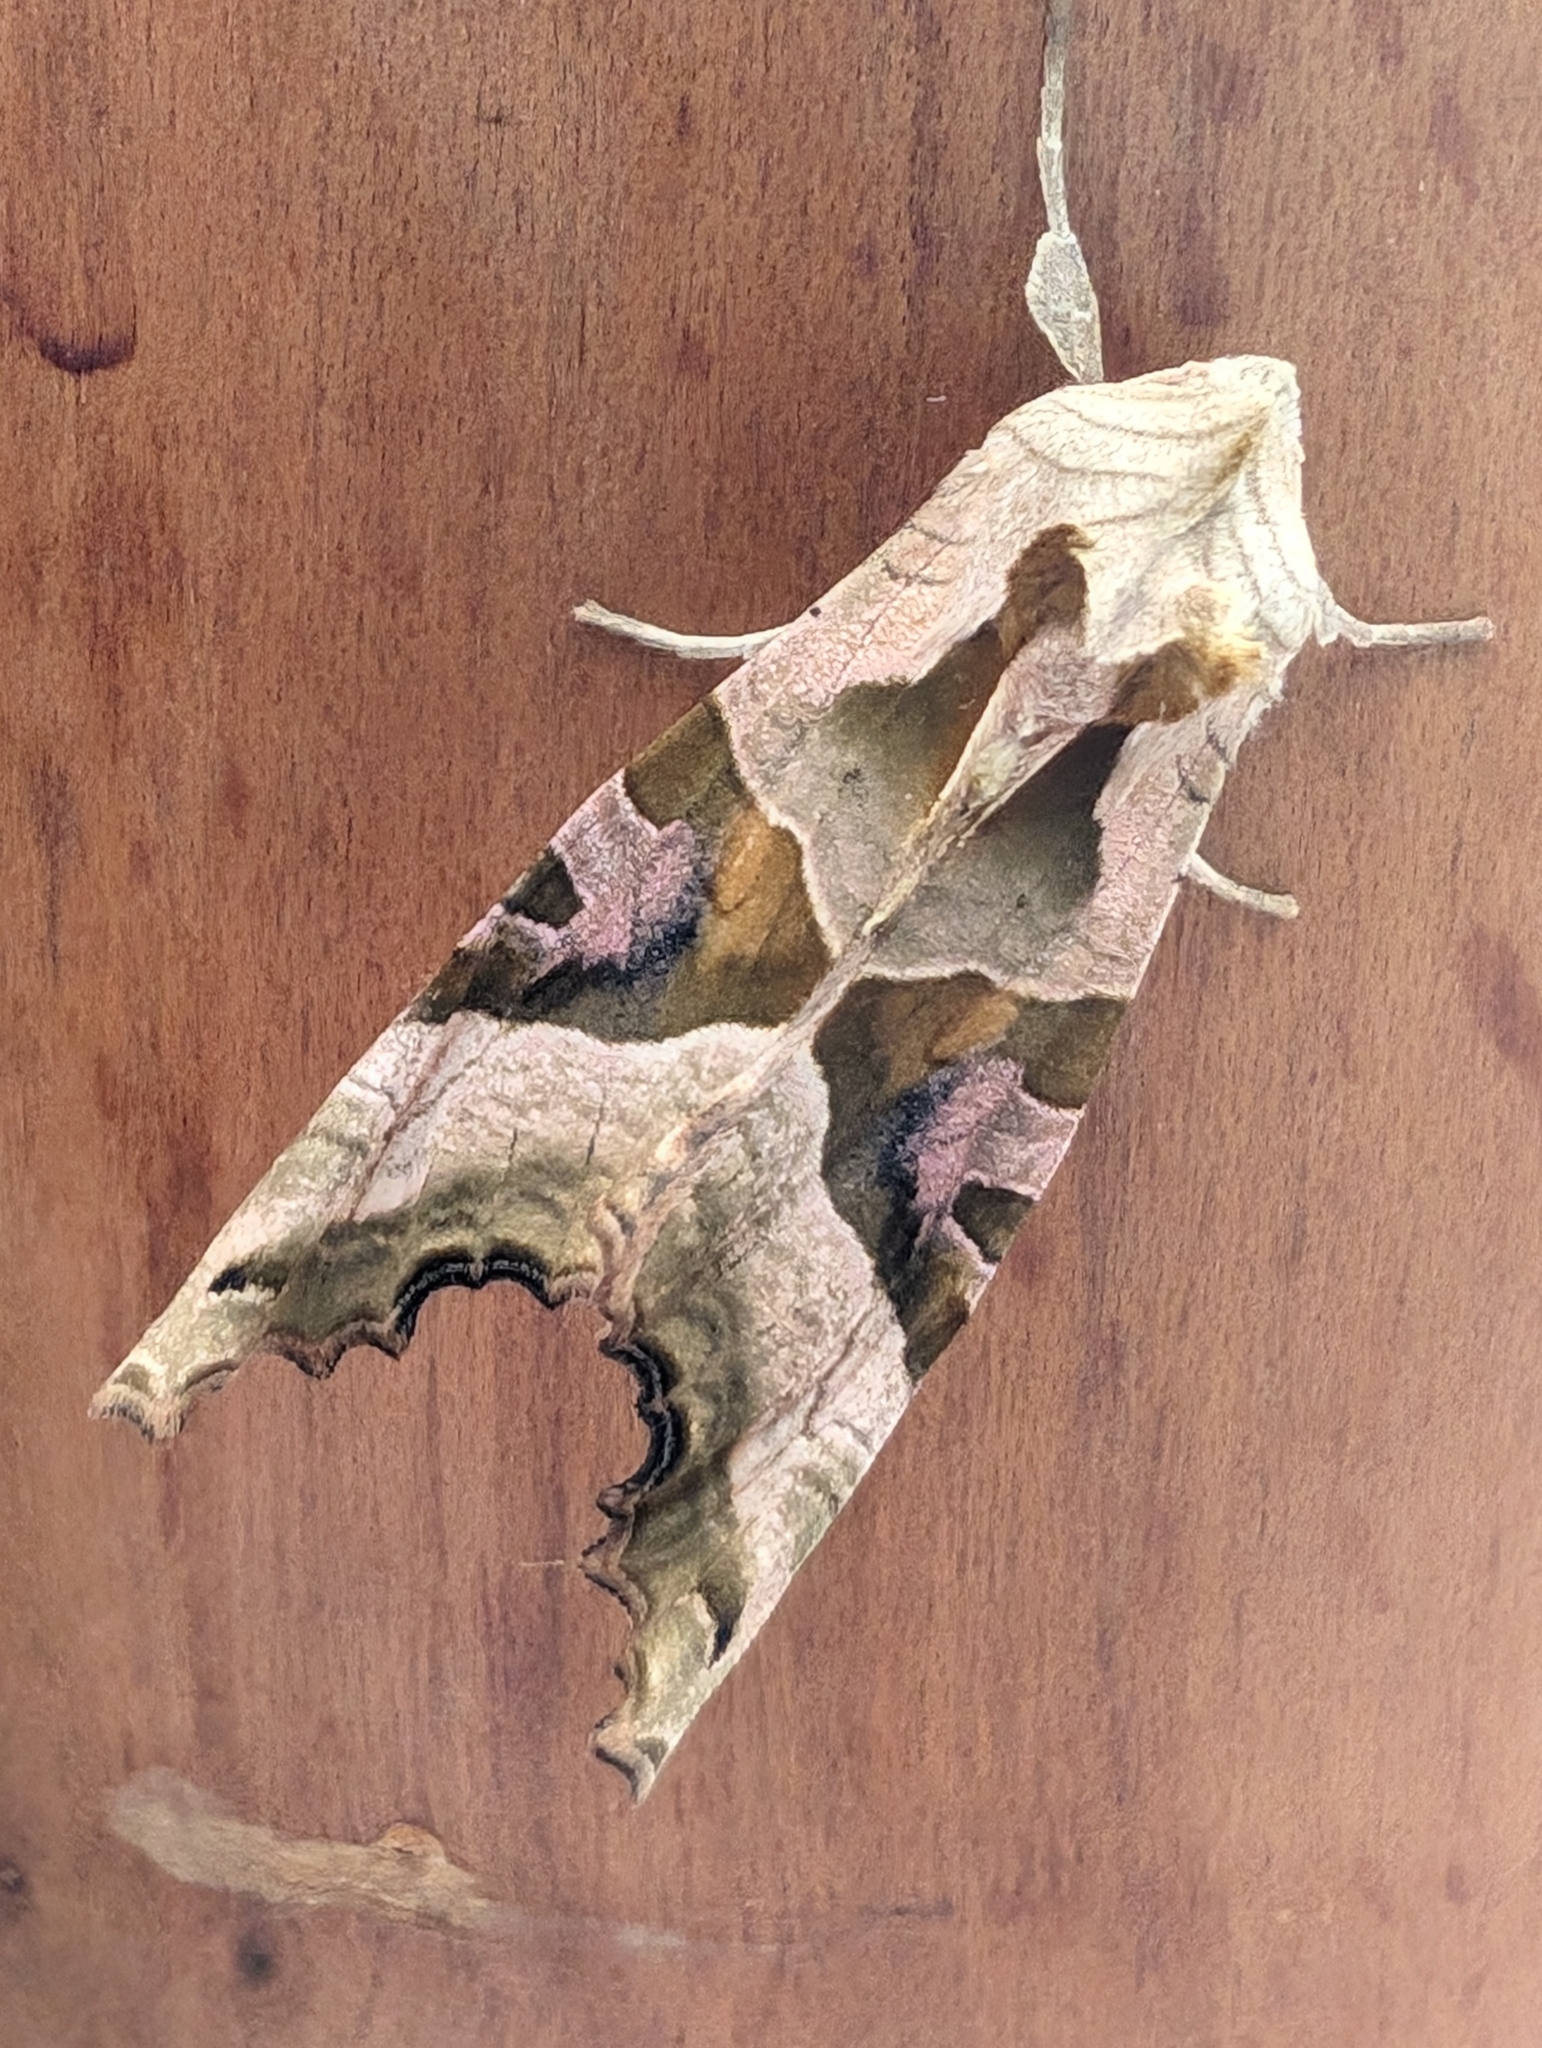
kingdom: Animalia
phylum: Arthropoda
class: Insecta
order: Lepidoptera
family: Noctuidae
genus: Phlogophora
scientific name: Phlogophora meticulosa
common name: Angle shades
